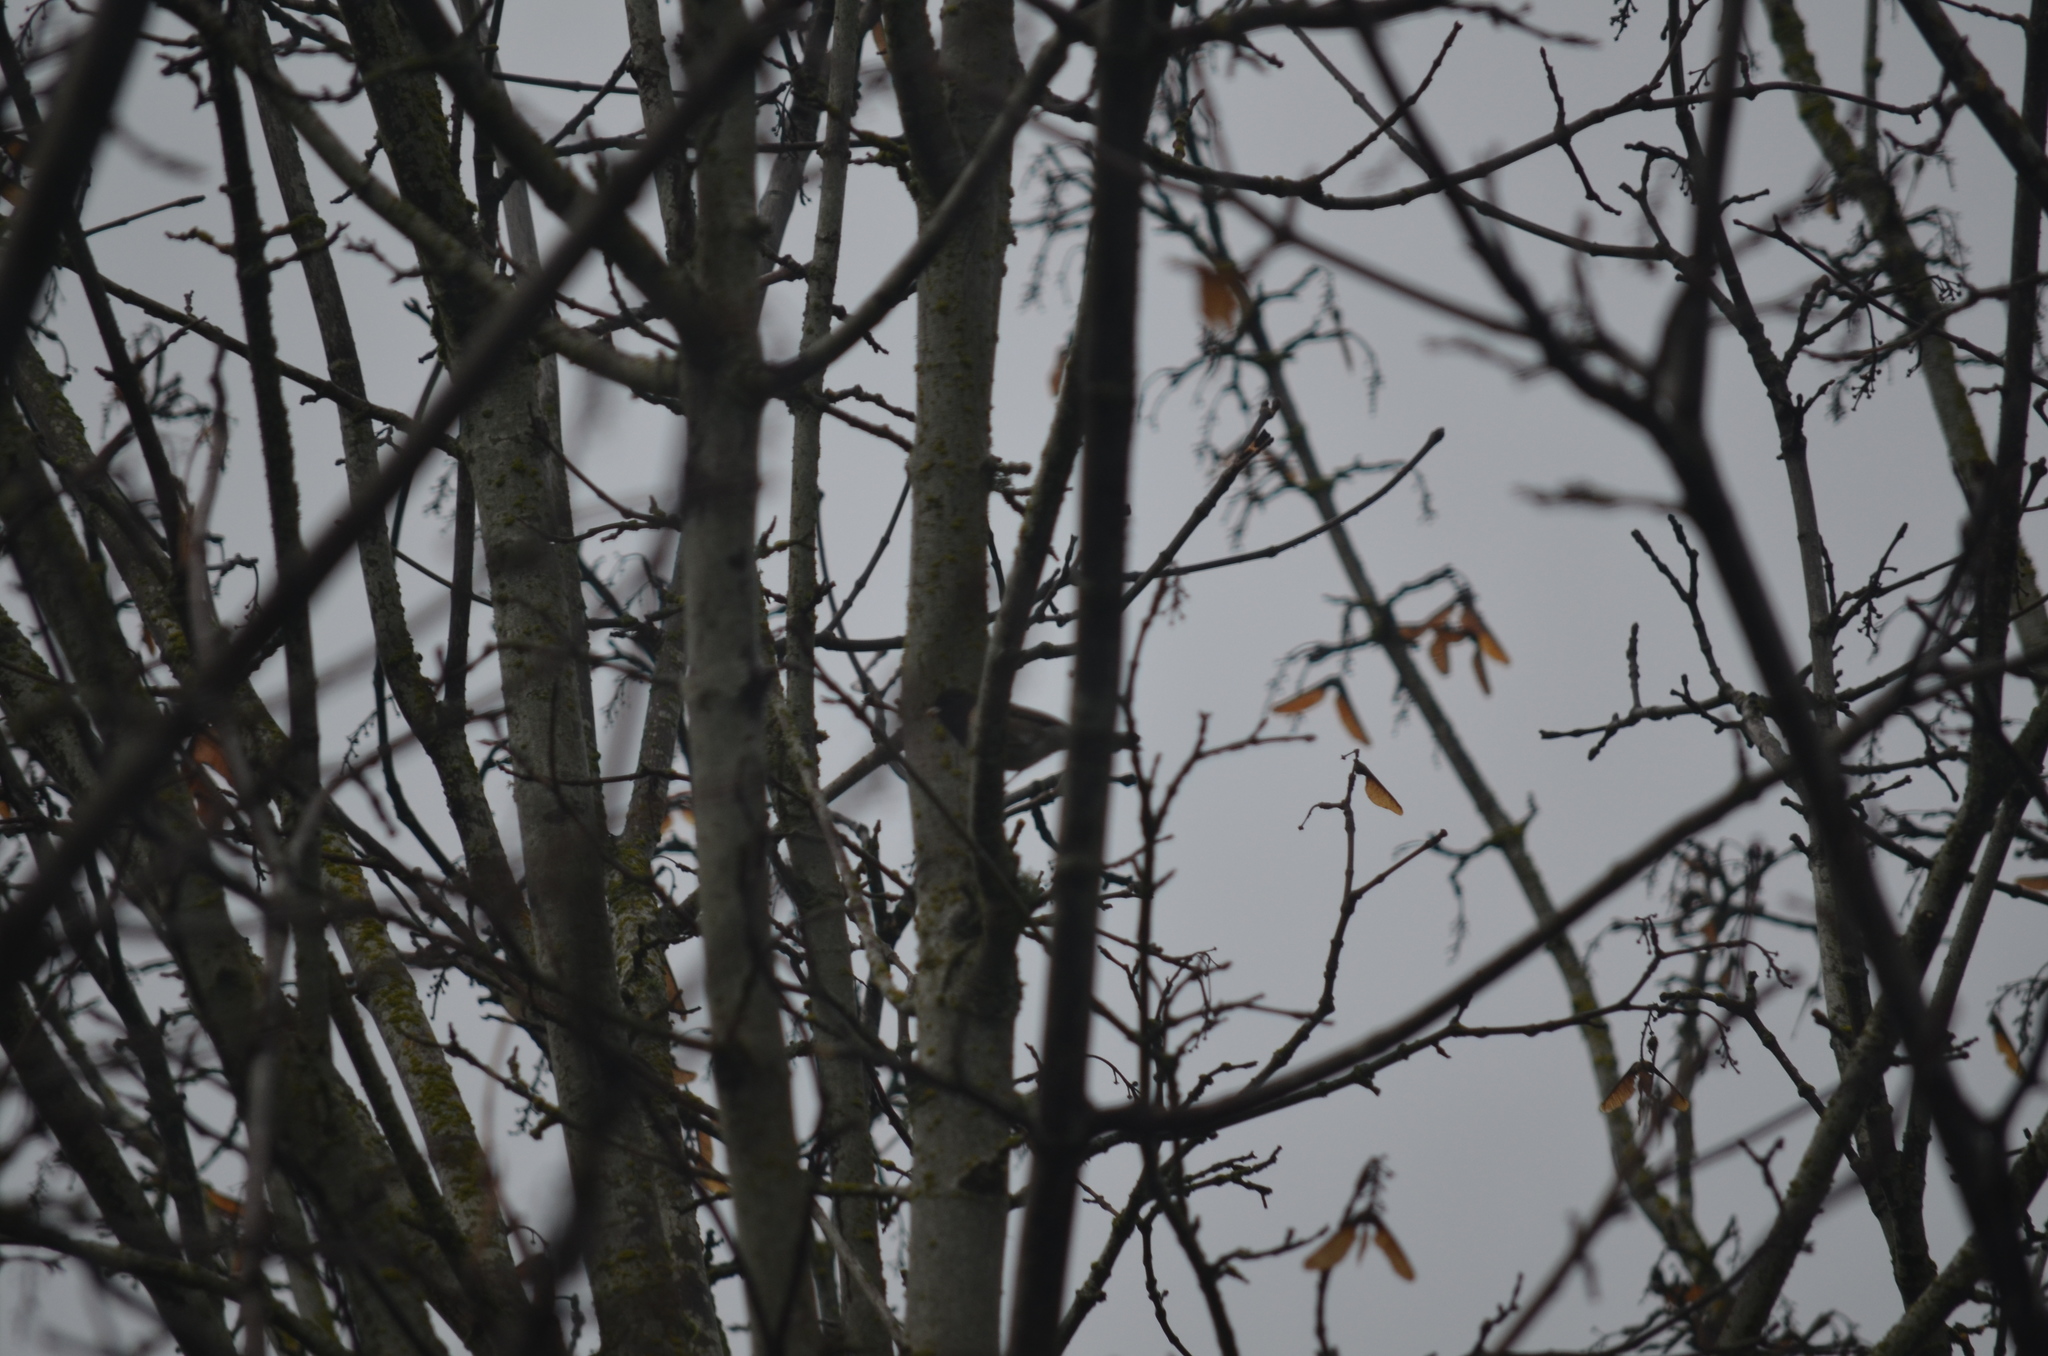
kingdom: Animalia
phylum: Chordata
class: Aves
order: Passeriformes
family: Passerellidae
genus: Junco
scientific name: Junco hyemalis
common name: Dark-eyed junco
